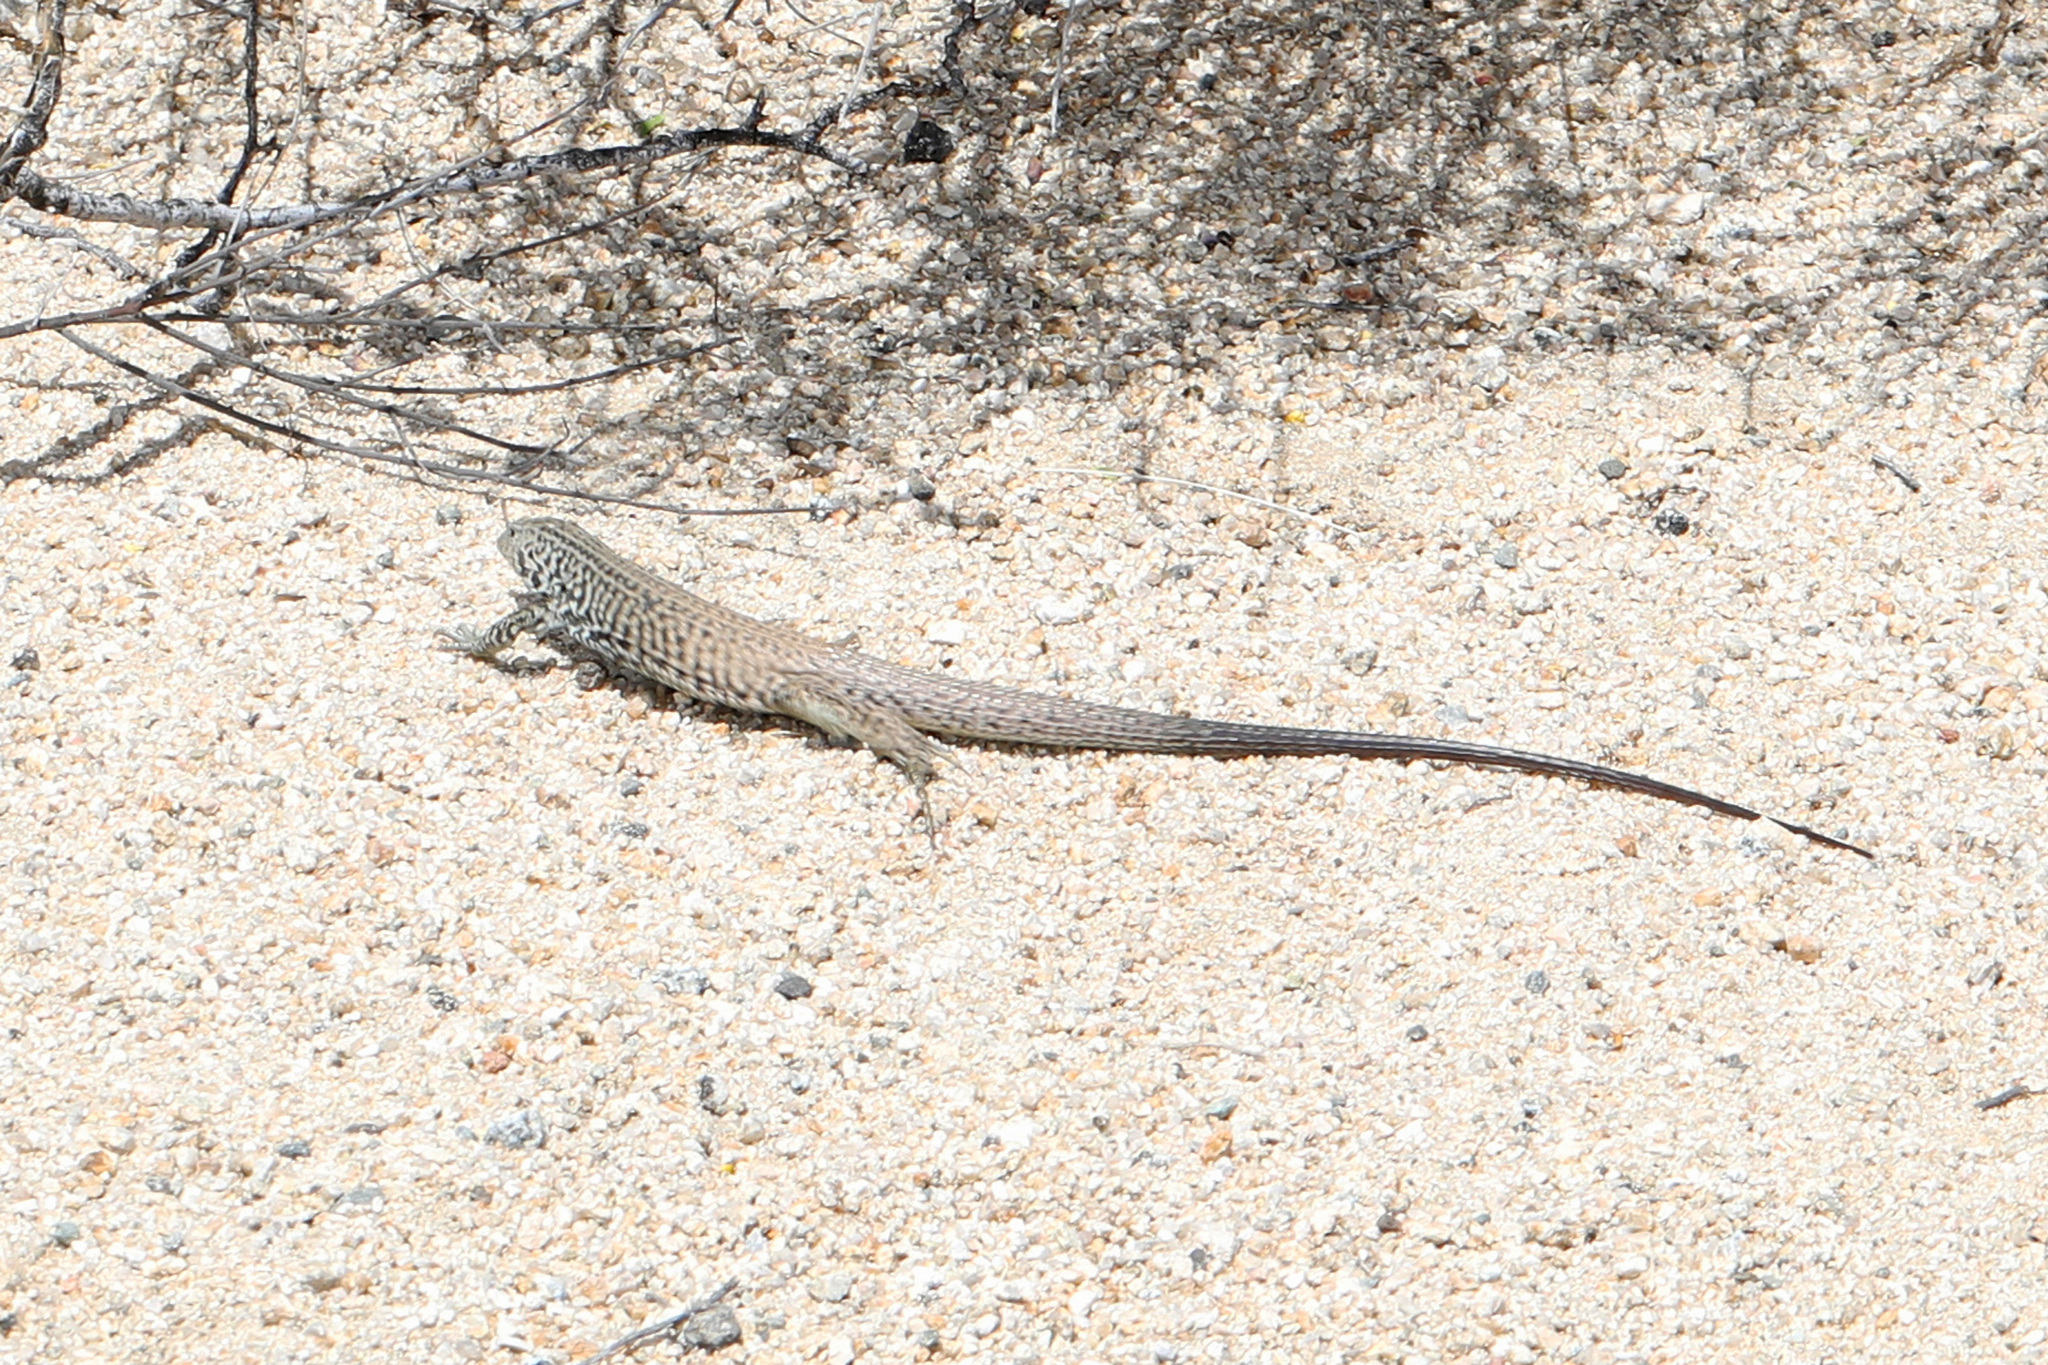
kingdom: Animalia
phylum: Chordata
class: Squamata
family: Teiidae
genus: Aspidoscelis
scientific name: Aspidoscelis tigris
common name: Tiger whiptail
